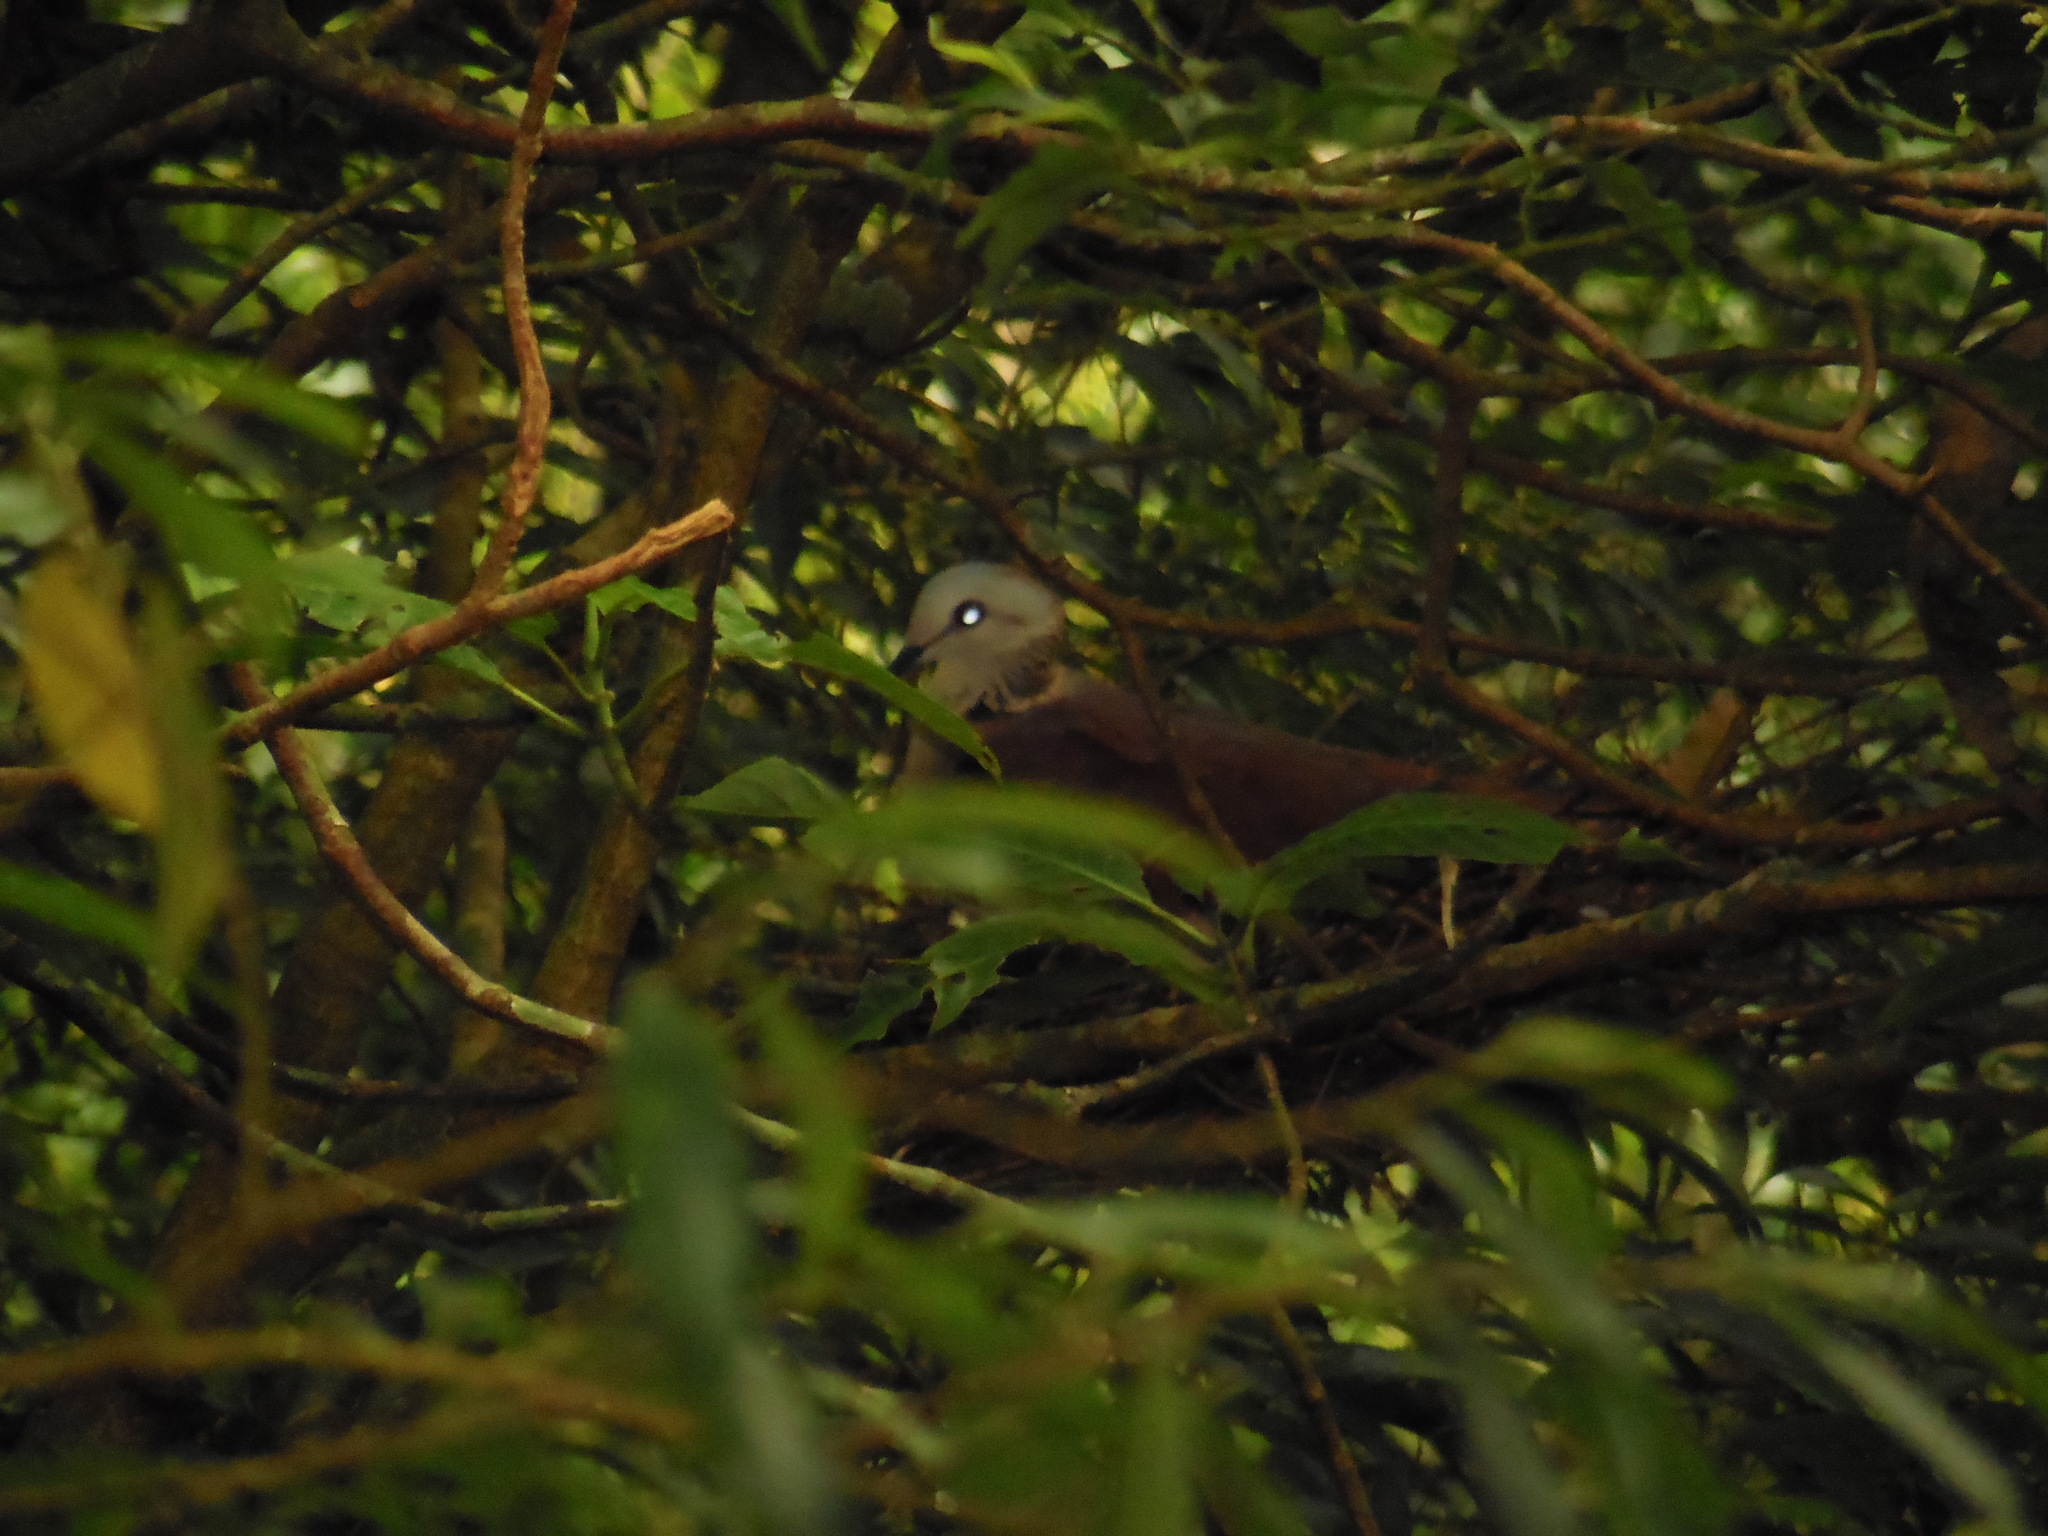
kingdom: Animalia
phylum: Chordata
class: Aves
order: Columbiformes
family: Columbidae
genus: Zentrygon
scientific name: Zentrygon albifacies
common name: White-faced quail-dove
